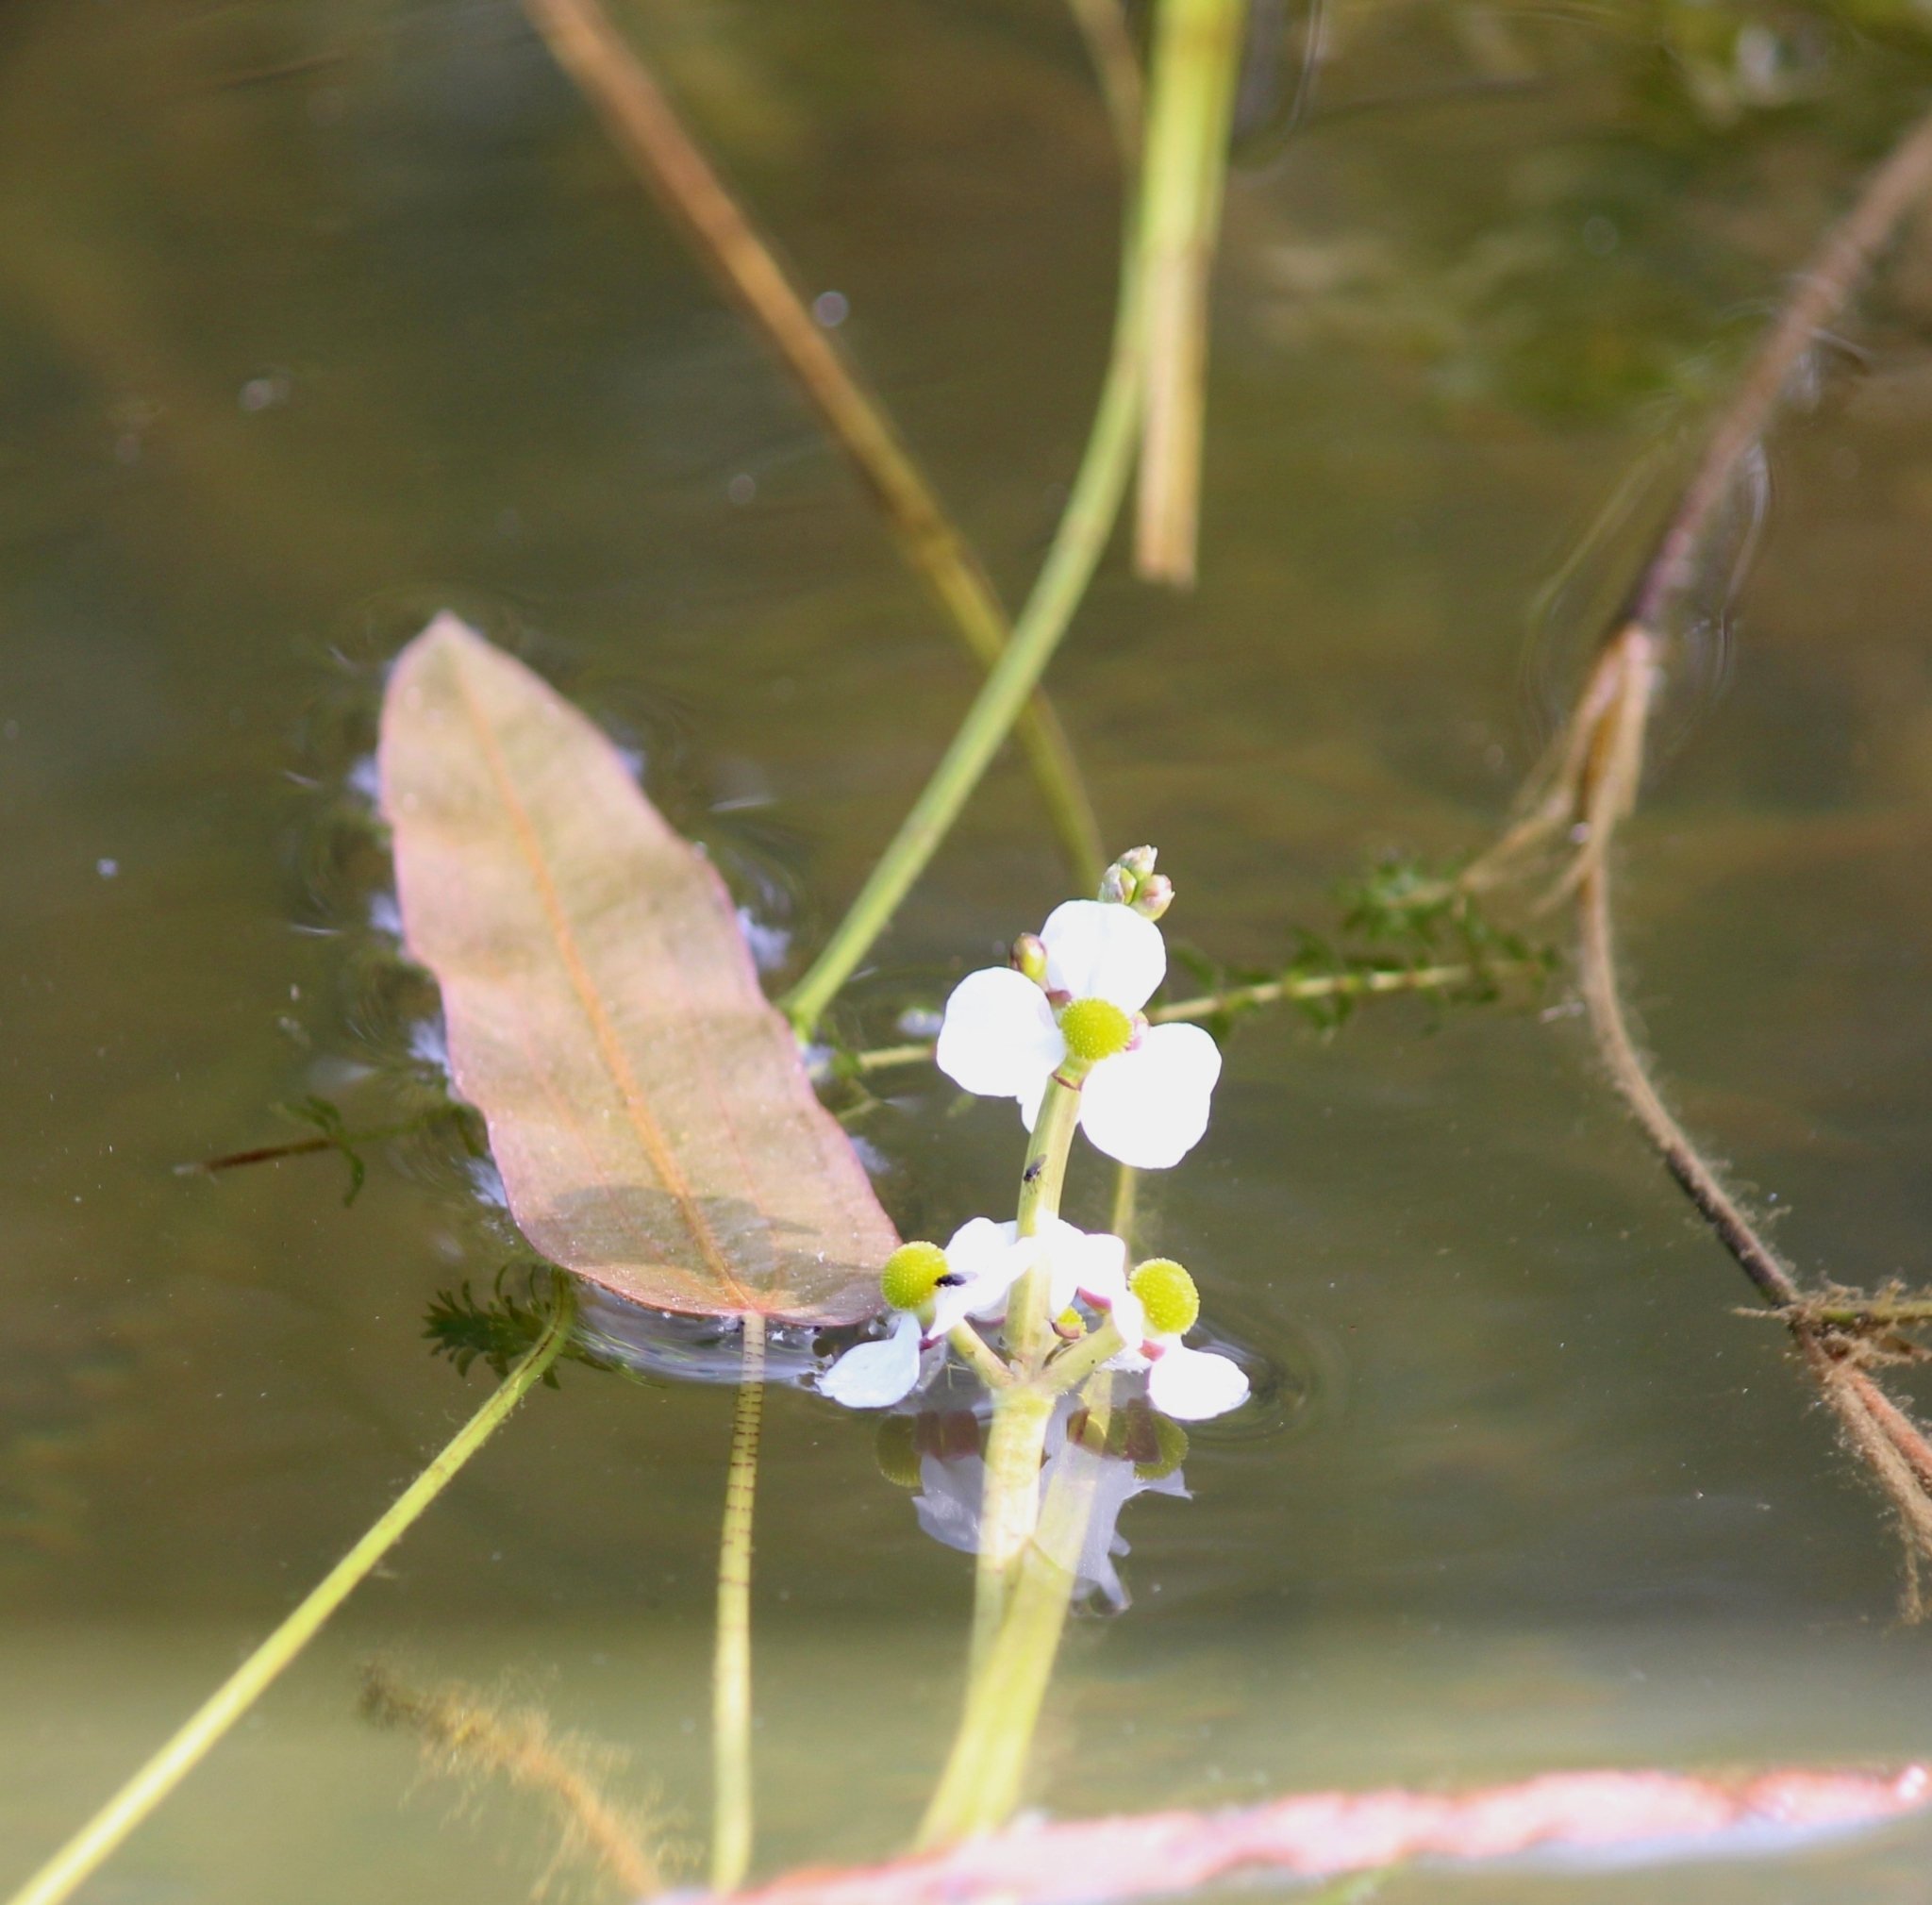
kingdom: Plantae
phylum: Tracheophyta
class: Liliopsida
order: Alismatales
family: Alismataceae
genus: Sagittaria
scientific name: Sagittaria natans
